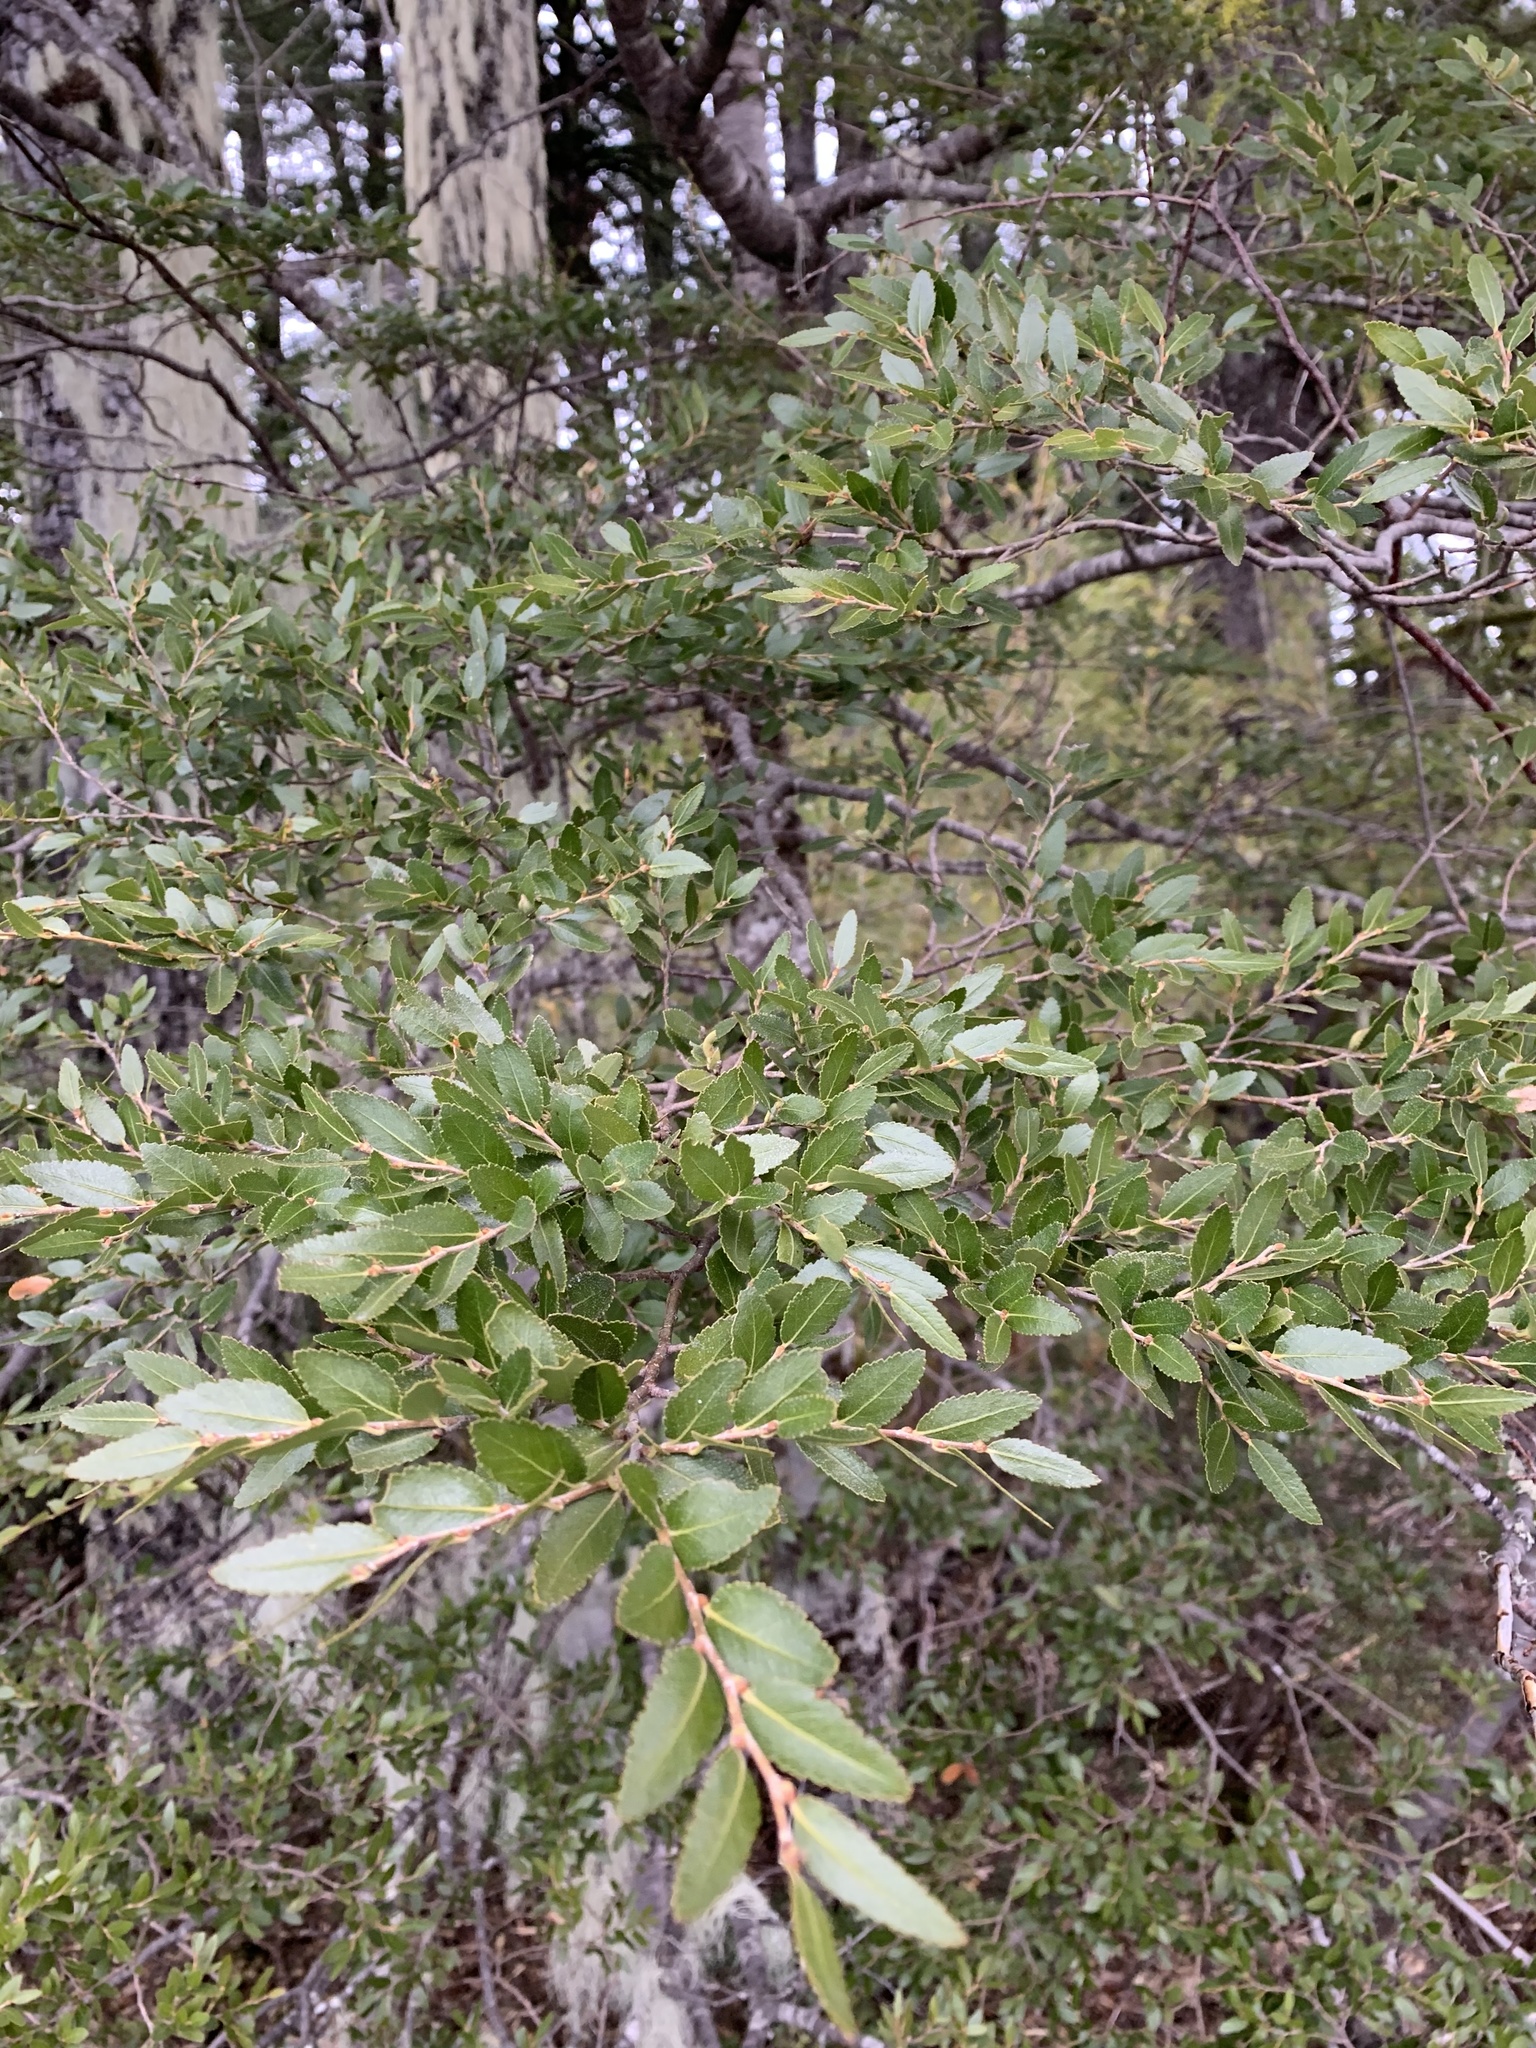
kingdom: Plantae
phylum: Tracheophyta
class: Magnoliopsida
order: Fagales
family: Nothofagaceae
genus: Nothofagus
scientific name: Nothofagus dombeyi
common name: Coigue
